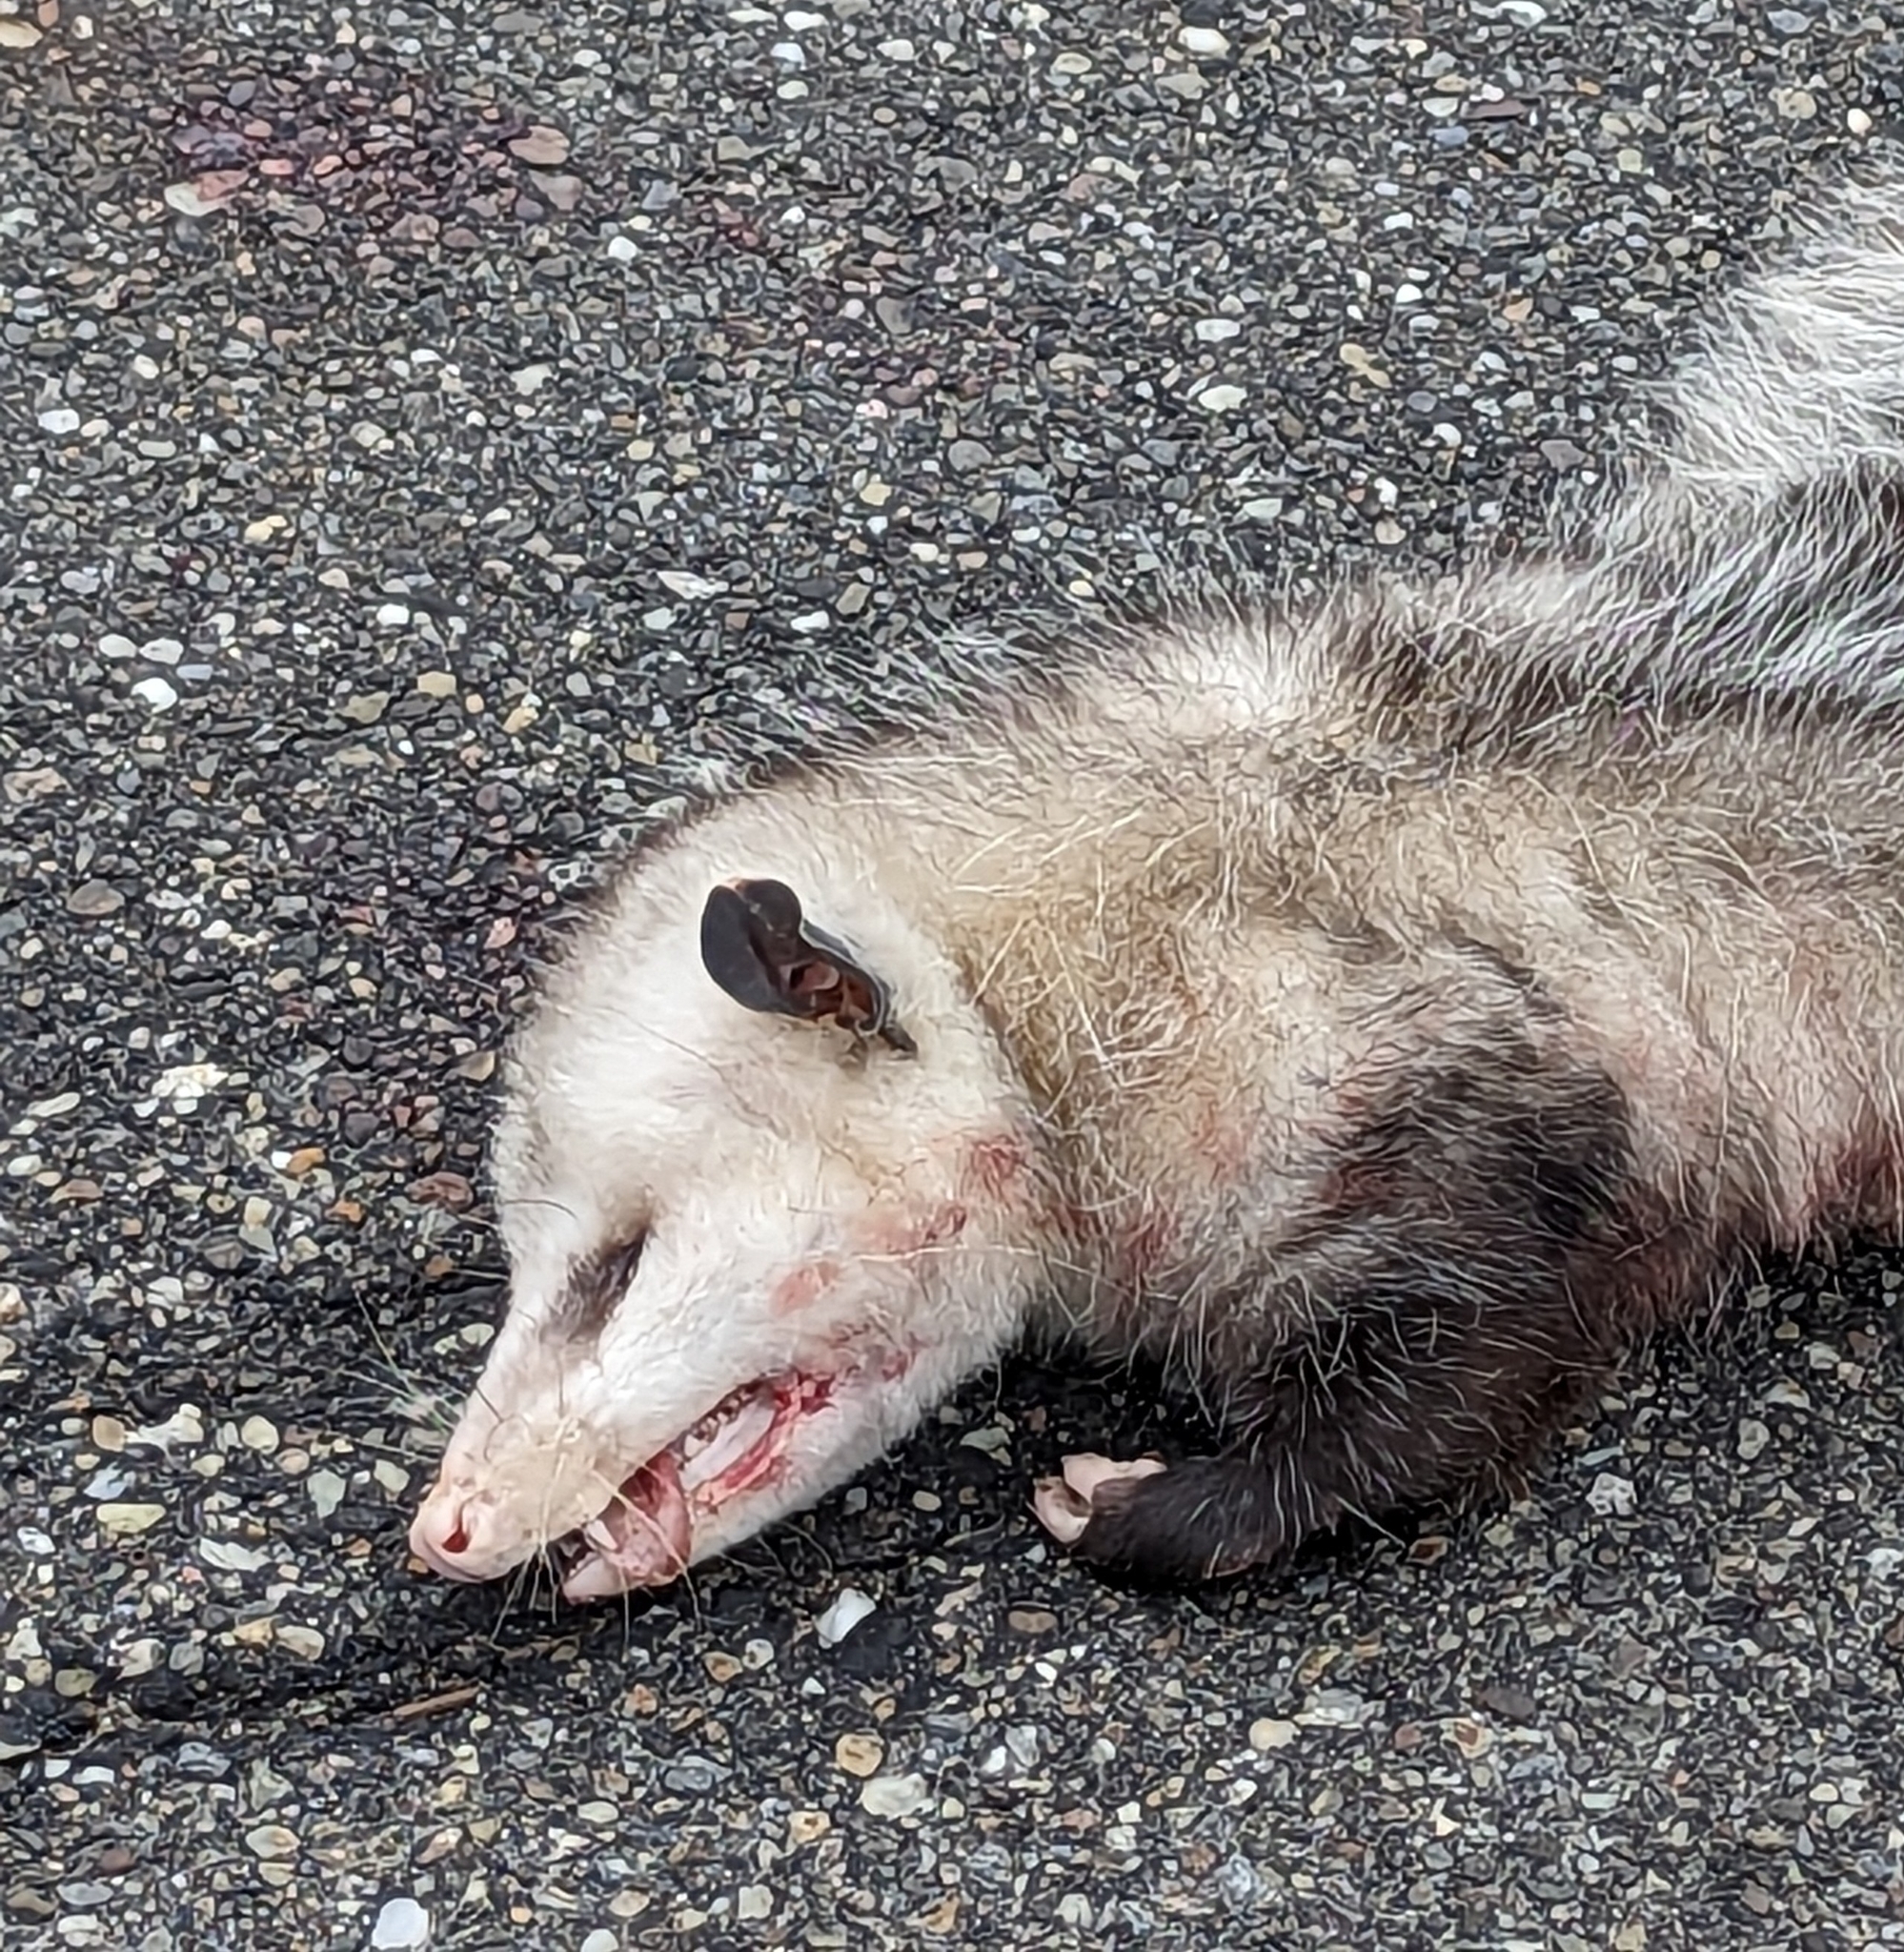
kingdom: Animalia
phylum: Chordata
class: Mammalia
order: Didelphimorphia
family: Didelphidae
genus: Didelphis
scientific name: Didelphis virginiana
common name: Virginia opossum
